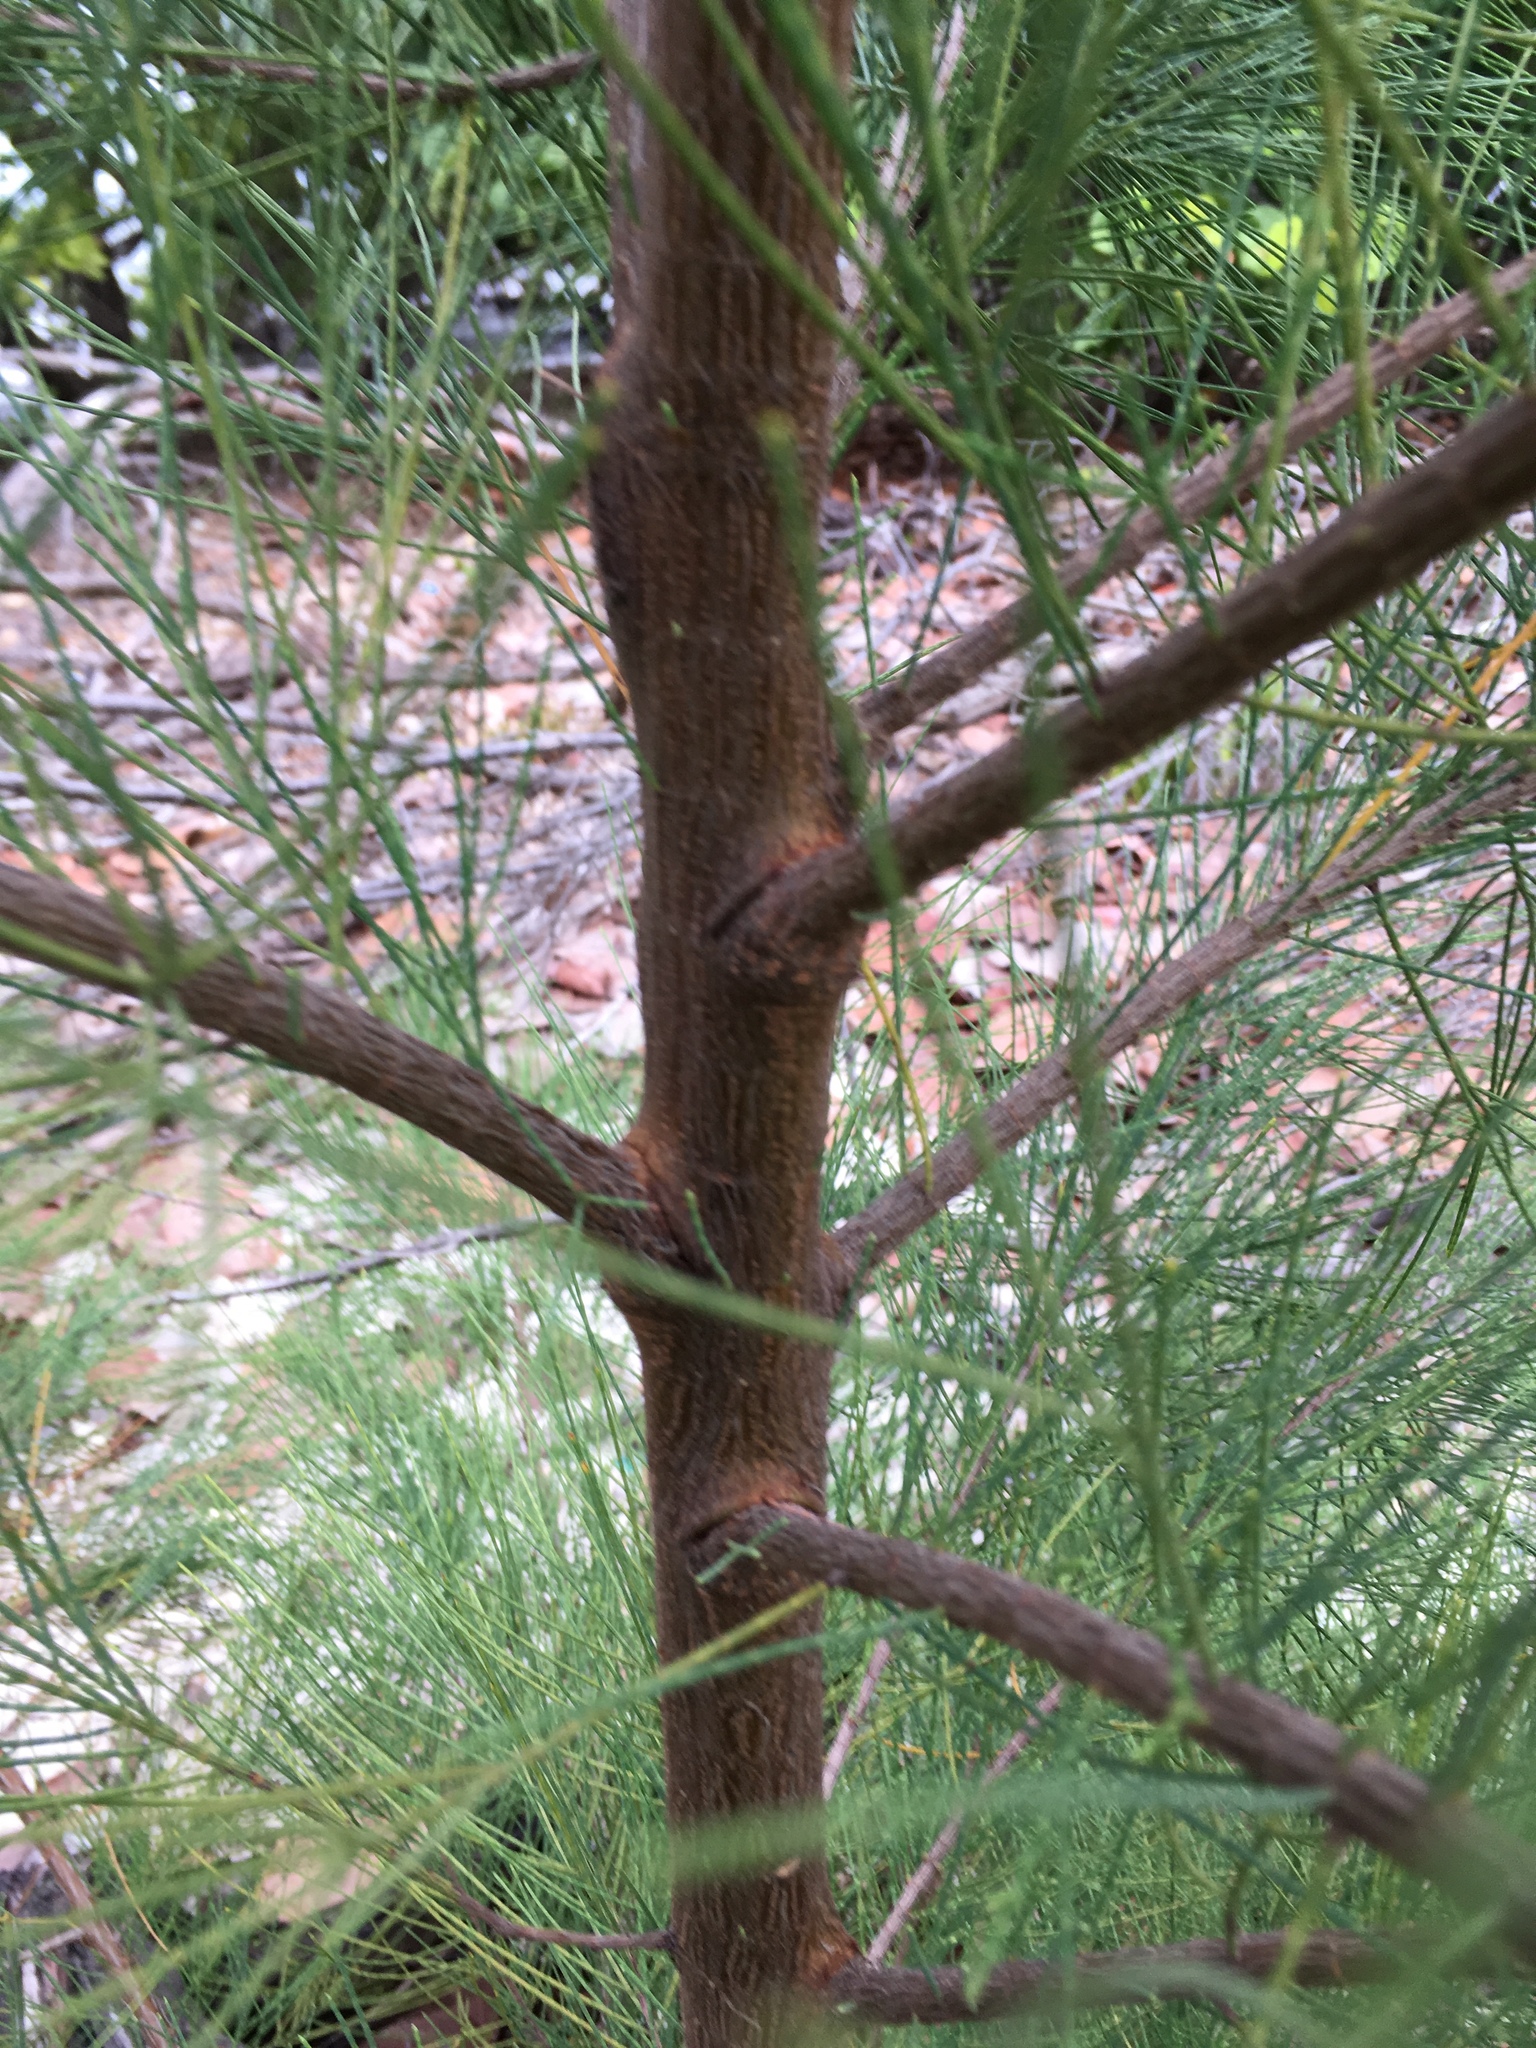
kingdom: Plantae
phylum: Tracheophyta
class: Magnoliopsida
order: Fagales
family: Casuarinaceae
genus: Casuarina
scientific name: Casuarina equisetifolia
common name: Beach sheoak
